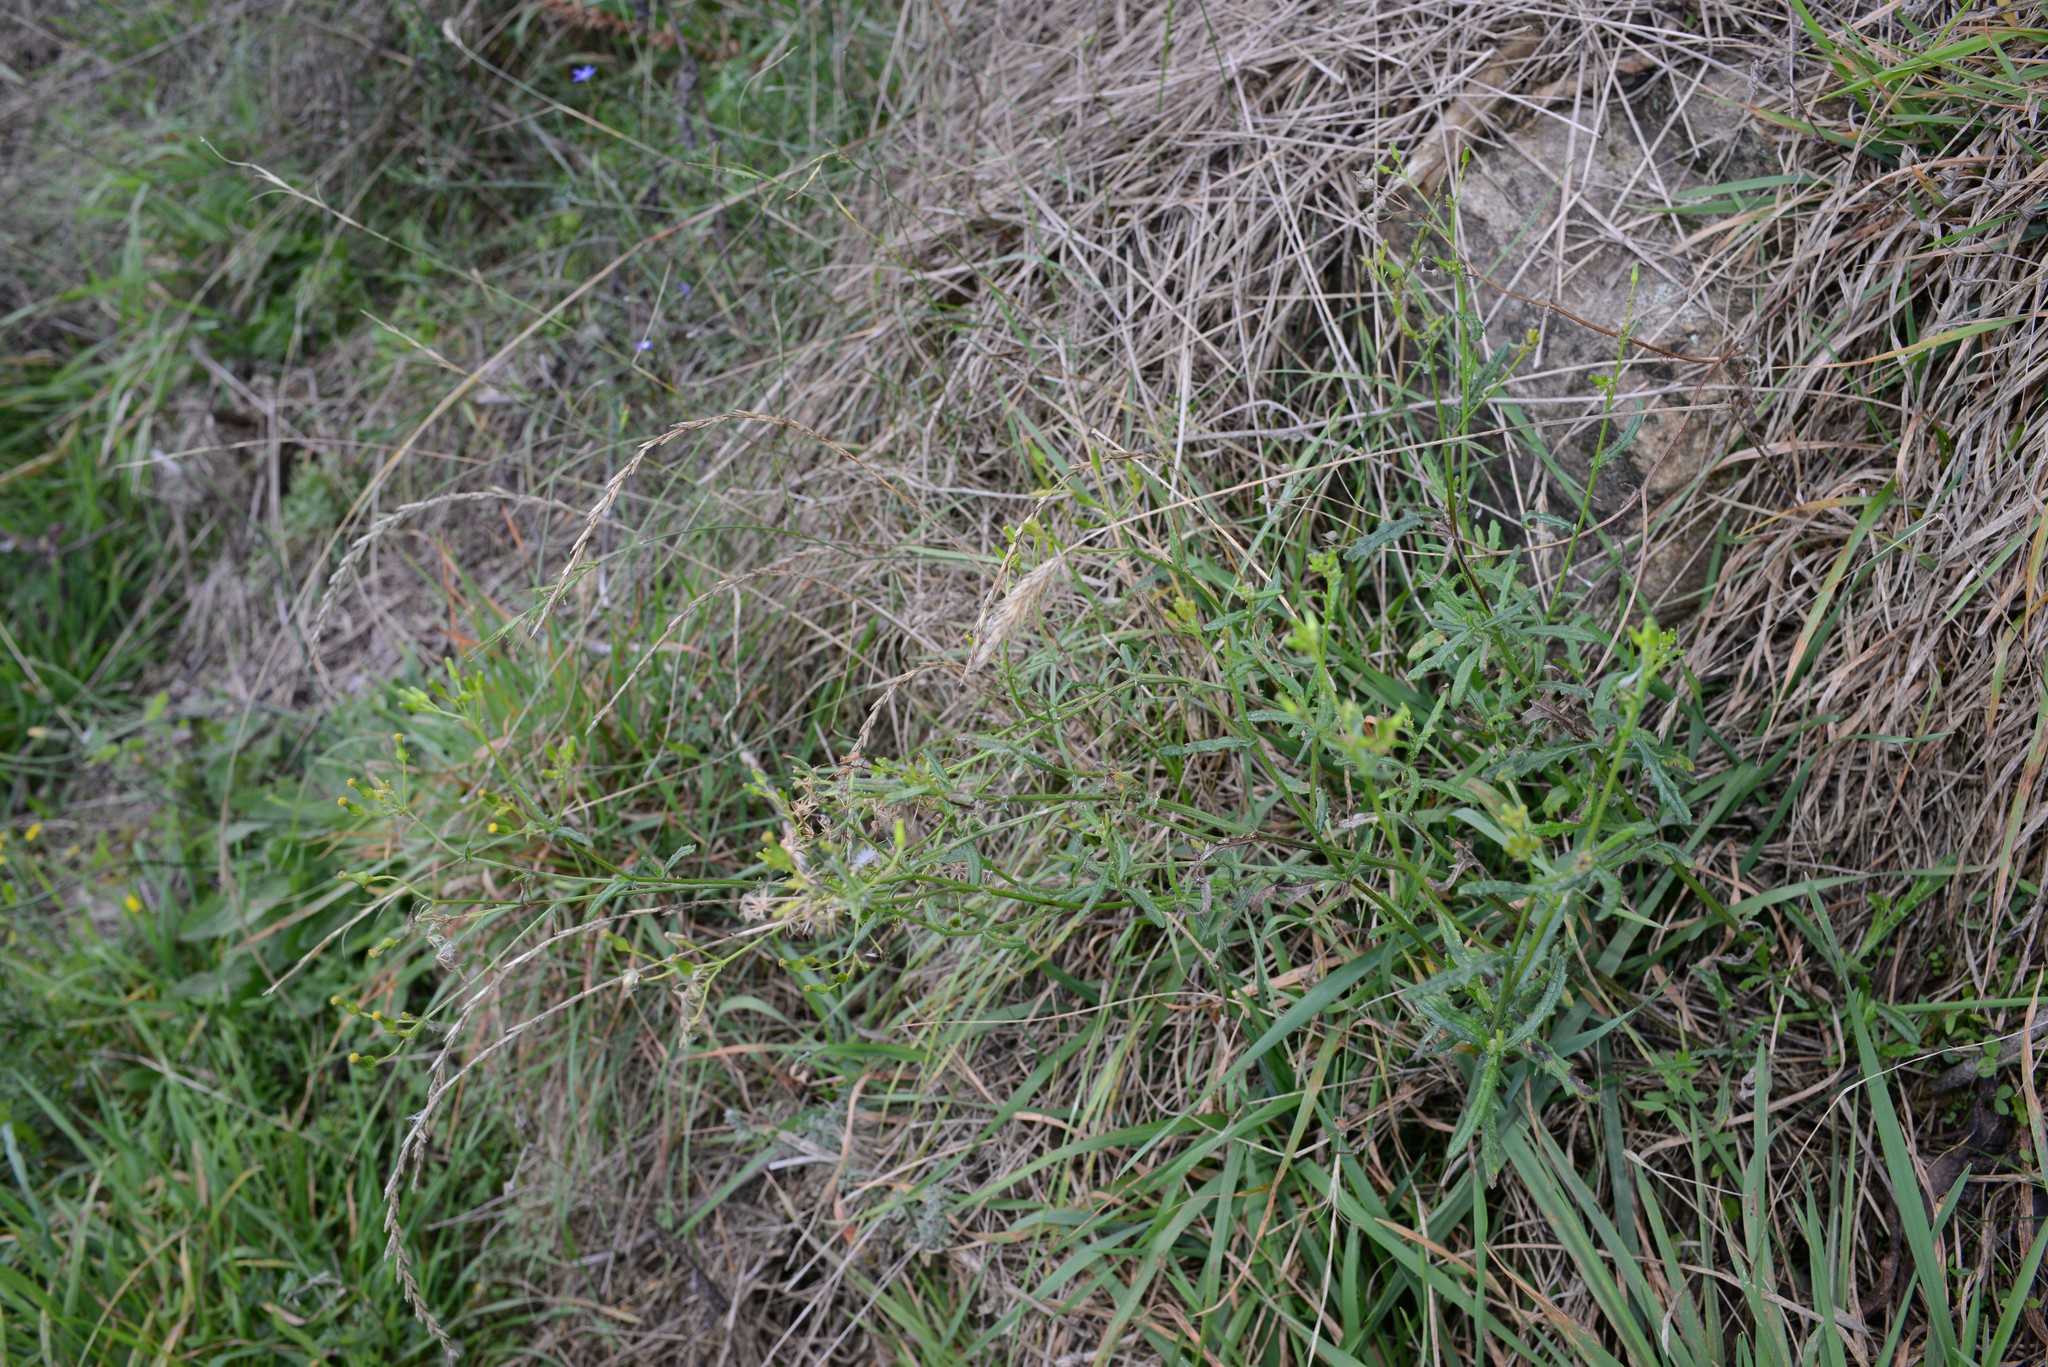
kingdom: Plantae
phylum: Tracheophyta
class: Magnoliopsida
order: Asterales
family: Asteraceae
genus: Senecio
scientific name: Senecio hispidulus
